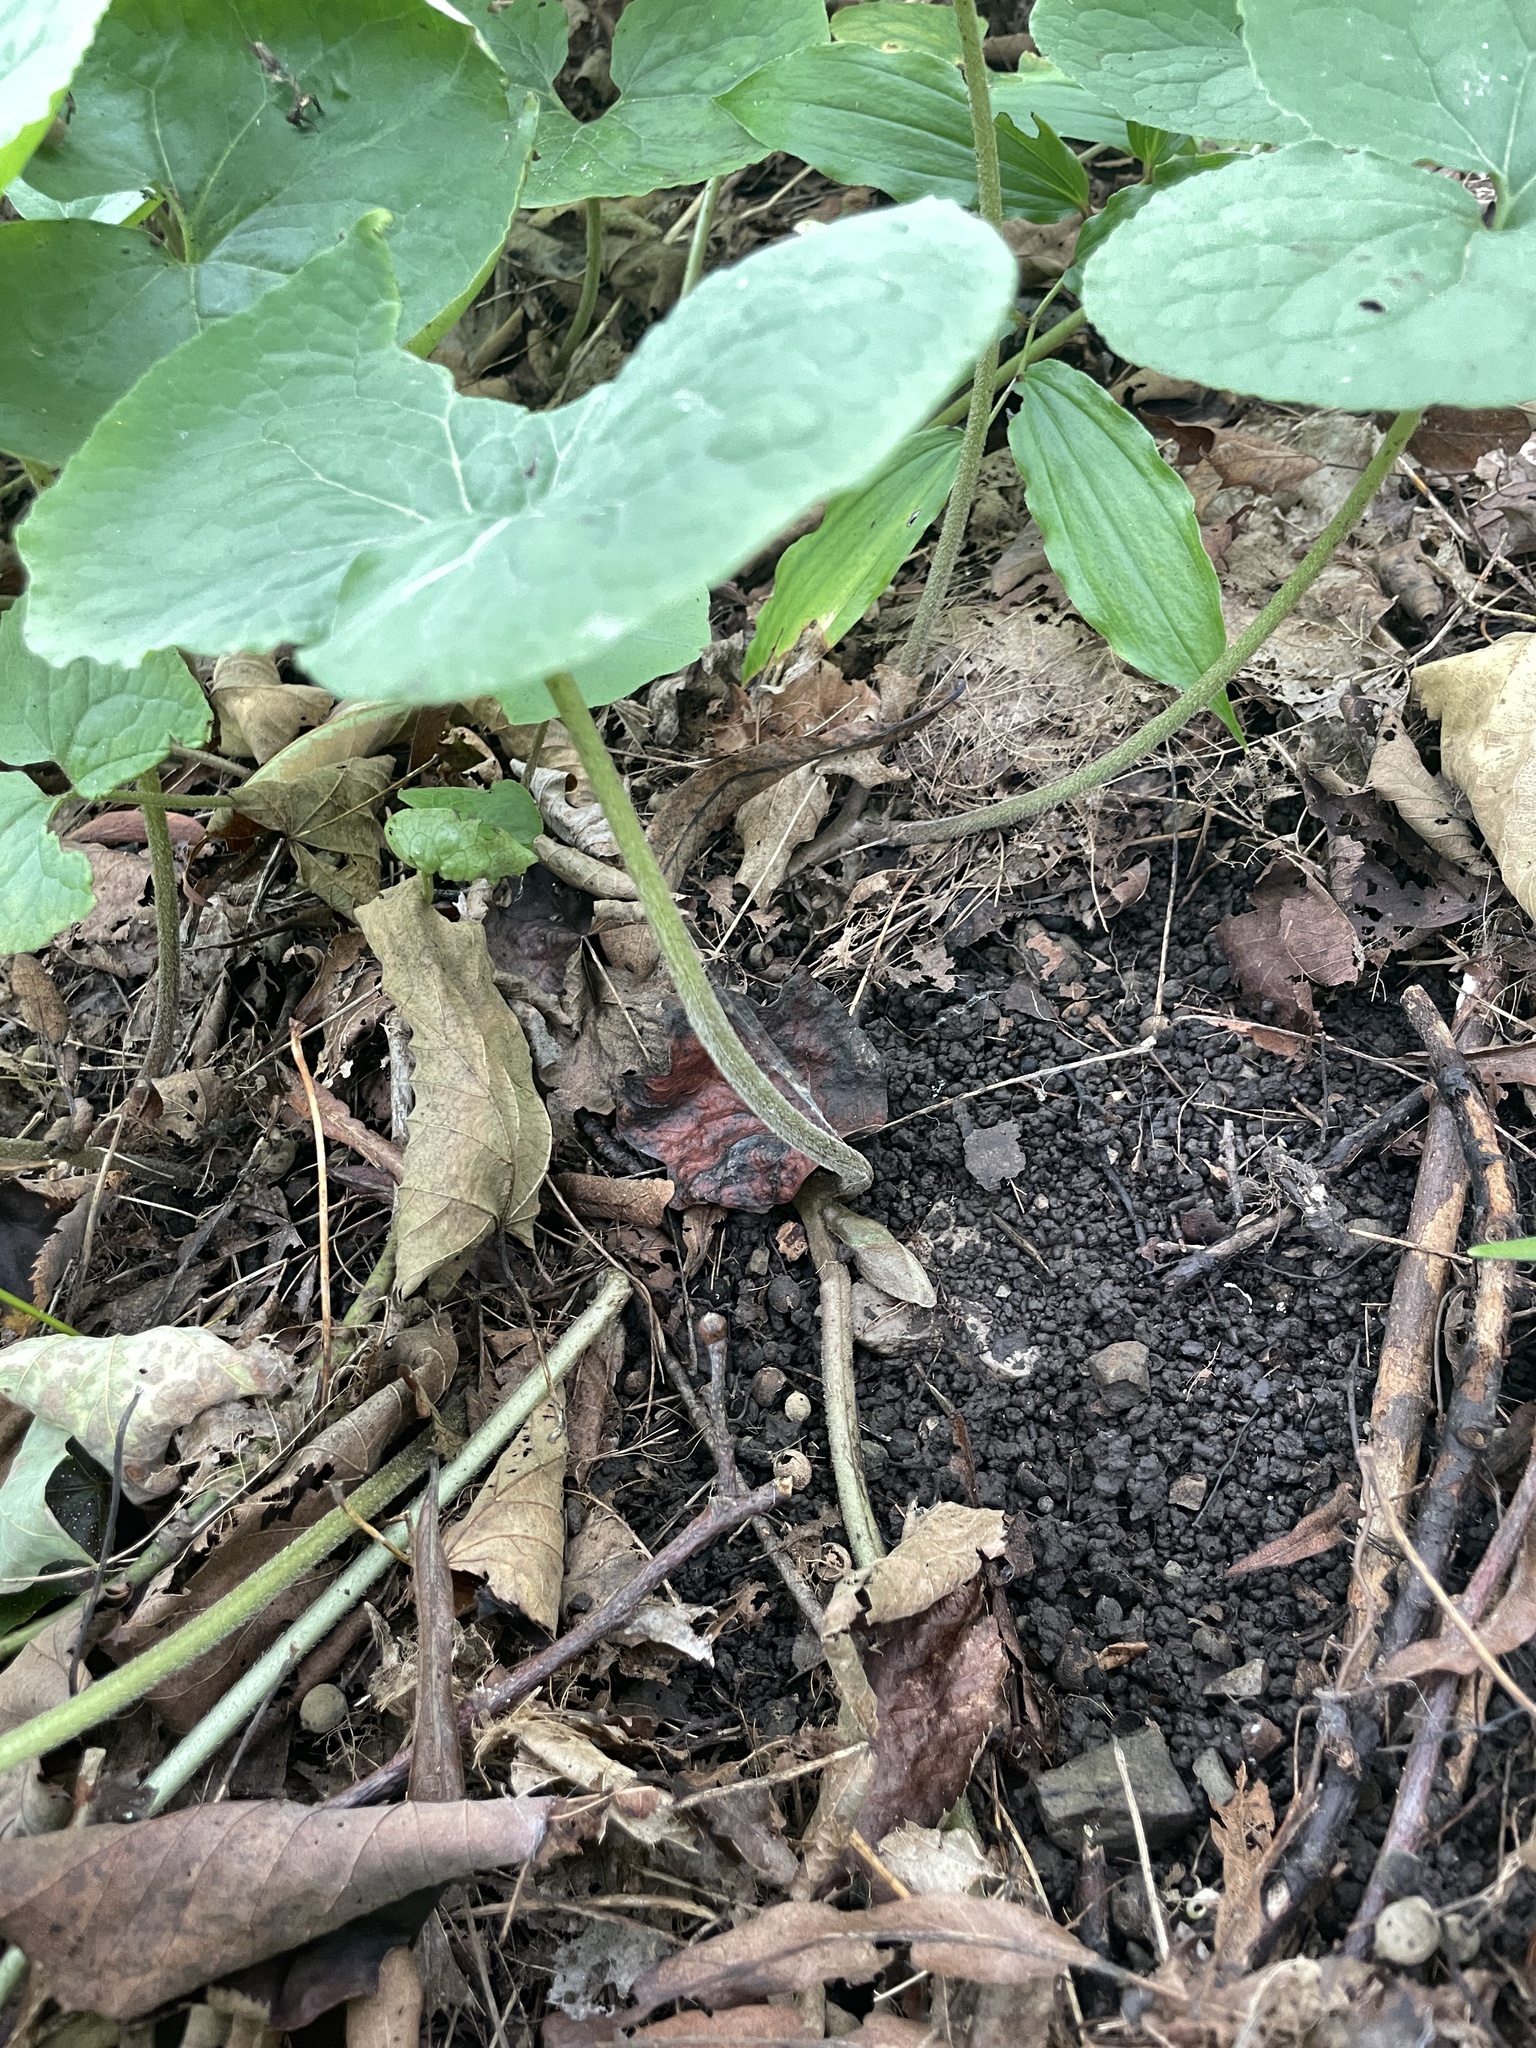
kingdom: Plantae
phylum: Tracheophyta
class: Magnoliopsida
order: Piperales
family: Aristolochiaceae
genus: Asarum
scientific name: Asarum canadense
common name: Wild ginger
